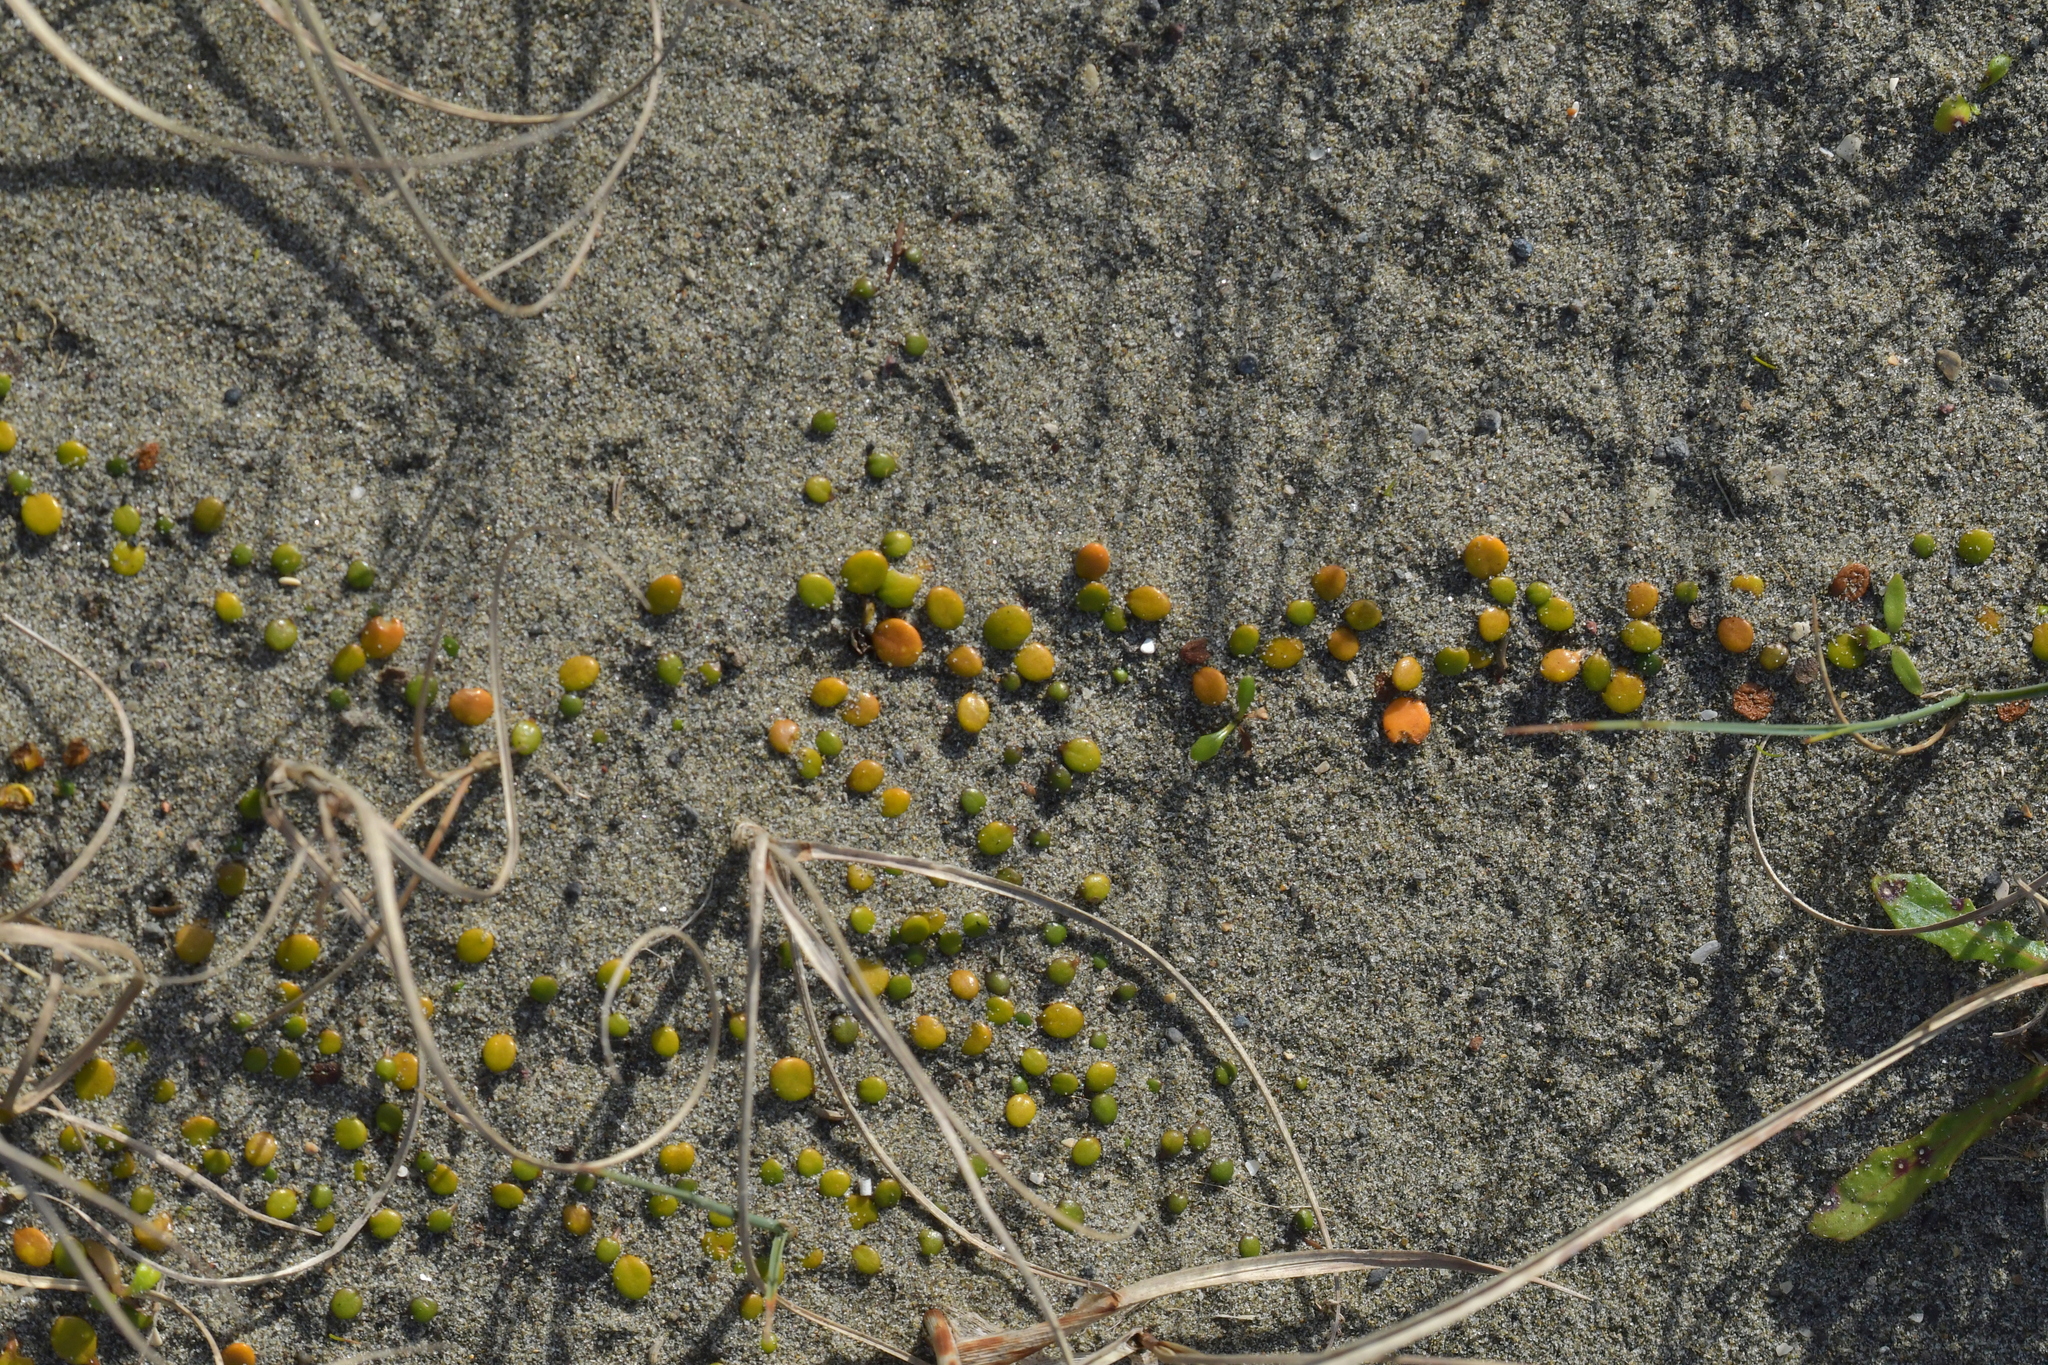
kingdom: Plantae
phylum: Tracheophyta
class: Magnoliopsida
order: Asterales
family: Goodeniaceae
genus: Goodenia
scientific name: Goodenia heenanii
